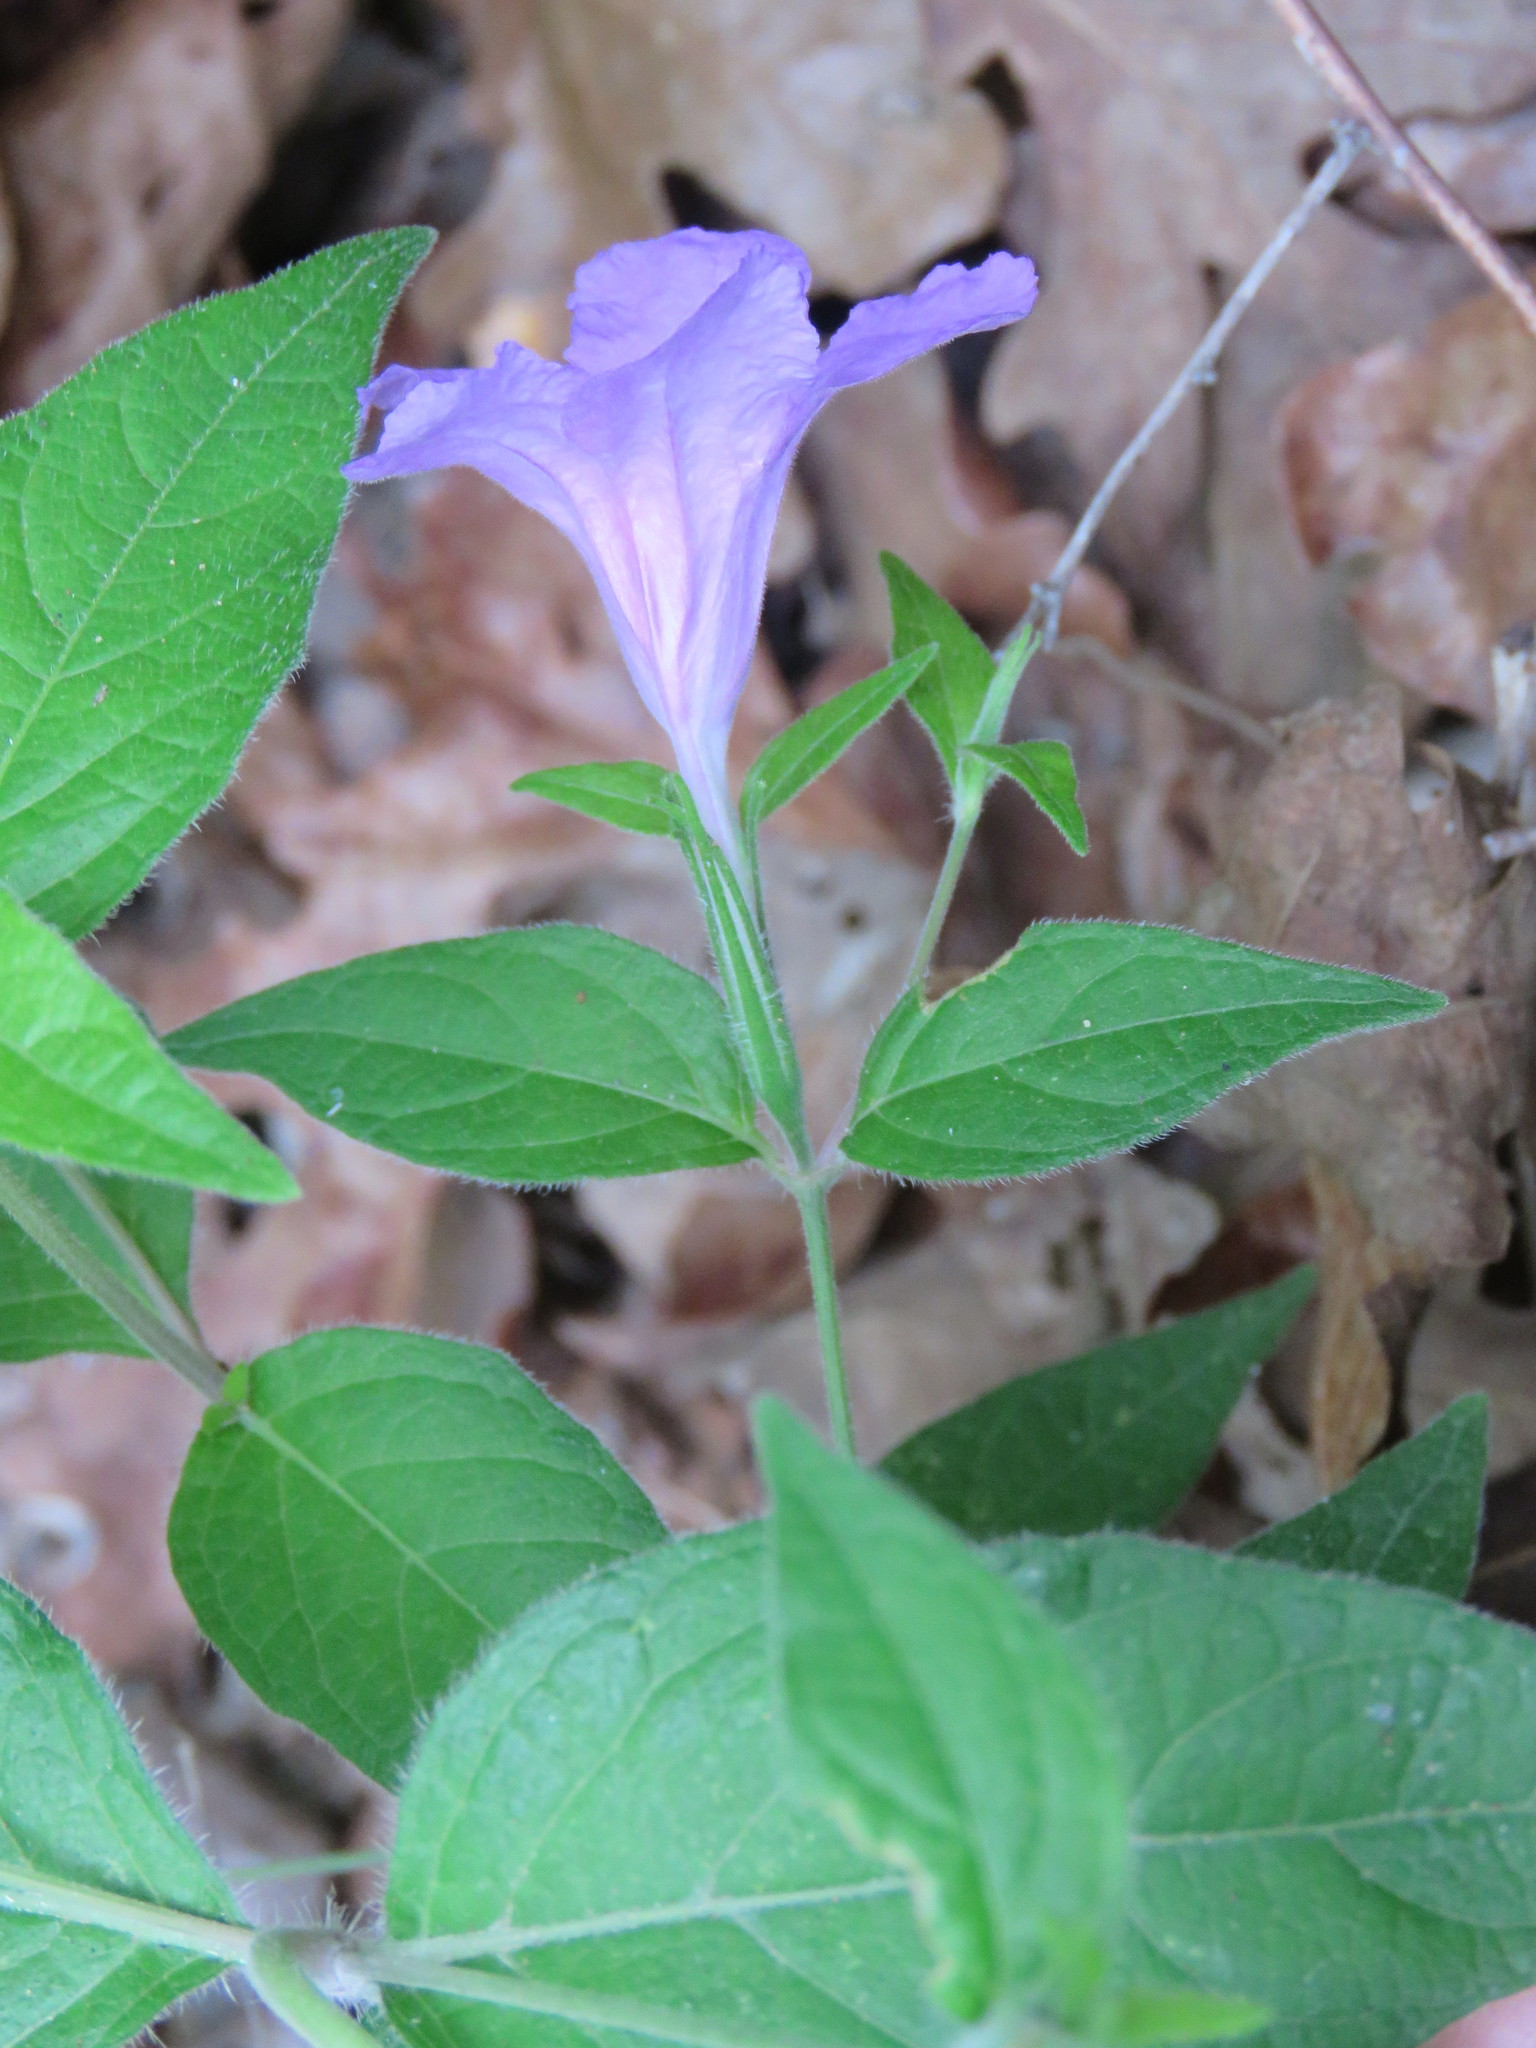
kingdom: Plantae
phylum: Tracheophyta
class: Magnoliopsida
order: Lamiales
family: Acanthaceae
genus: Ruellia
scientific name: Ruellia pedunculata
